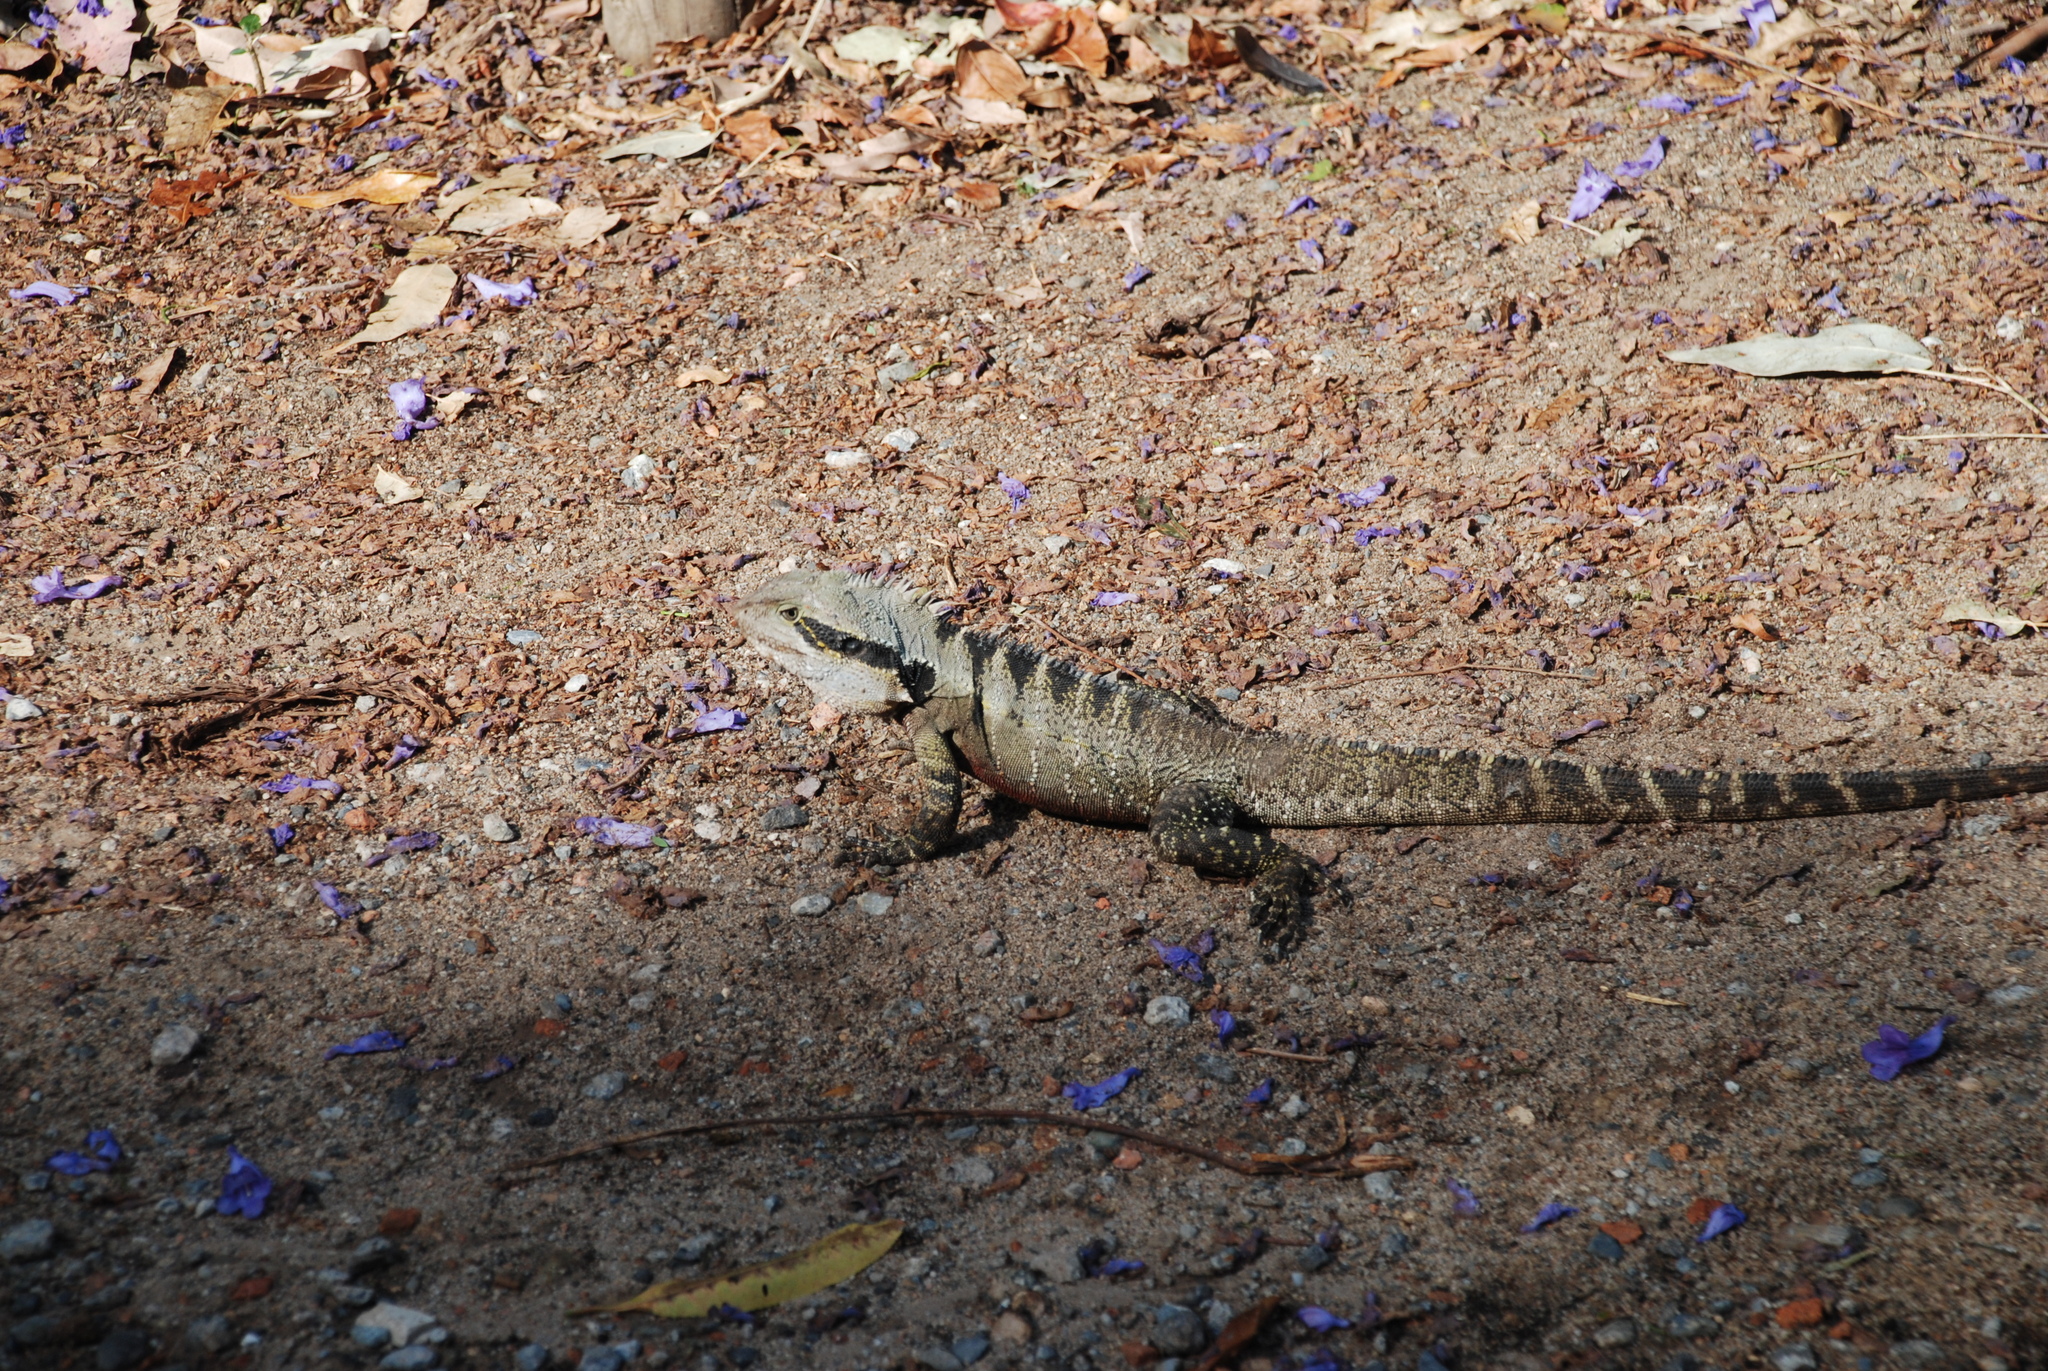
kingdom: Animalia
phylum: Chordata
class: Squamata
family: Agamidae
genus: Intellagama
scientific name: Intellagama lesueurii
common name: Eastern water dragon
